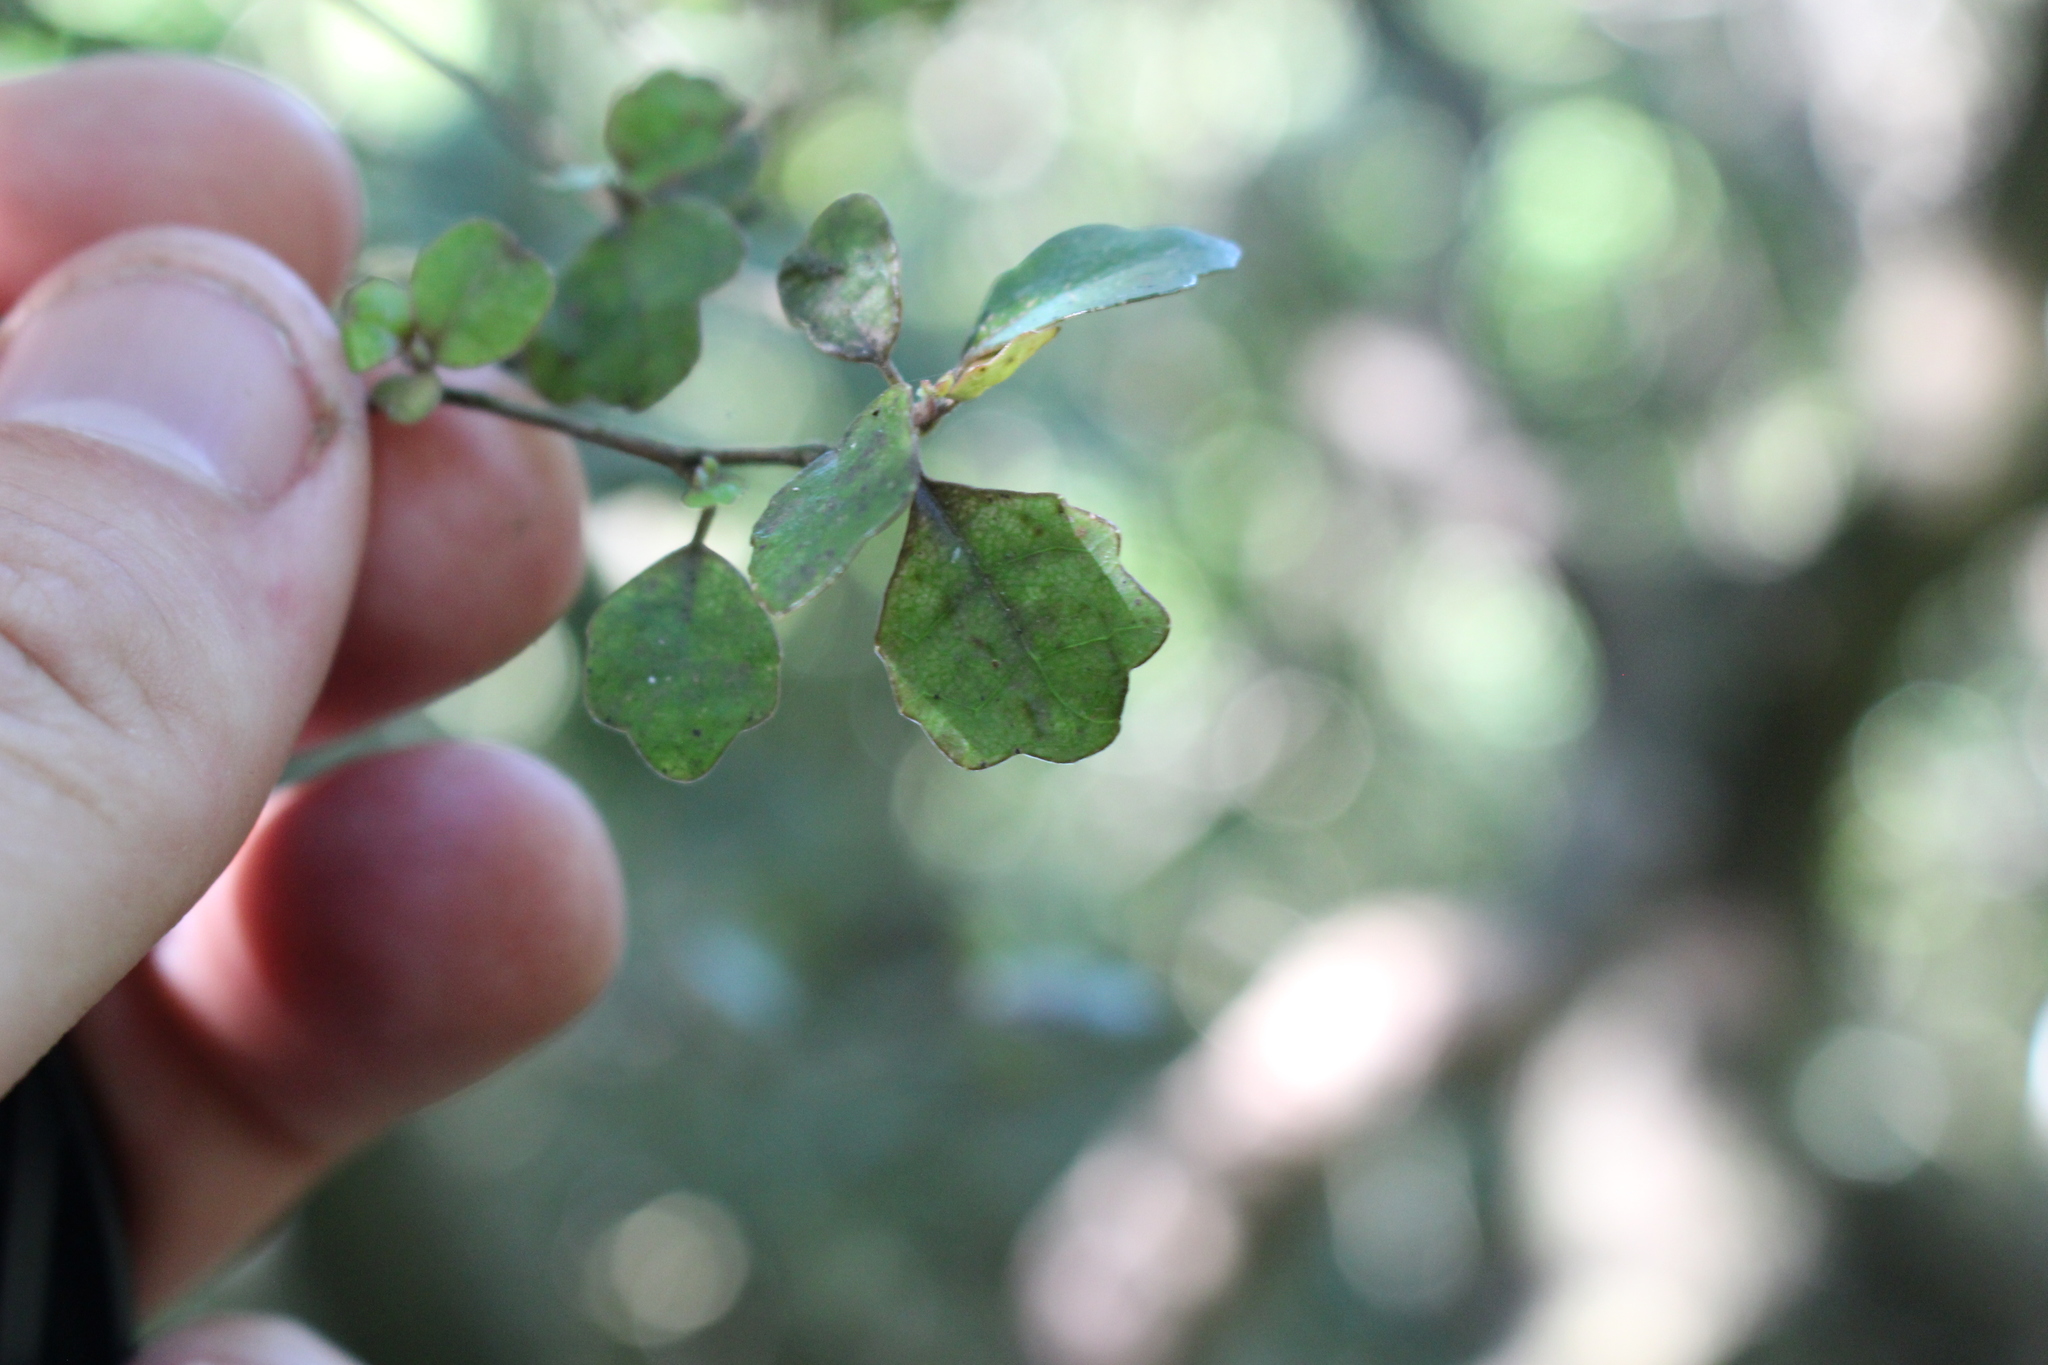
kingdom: Plantae
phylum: Tracheophyta
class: Magnoliopsida
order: Apiales
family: Pennantiaceae
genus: Pennantia
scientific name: Pennantia corymbosa
